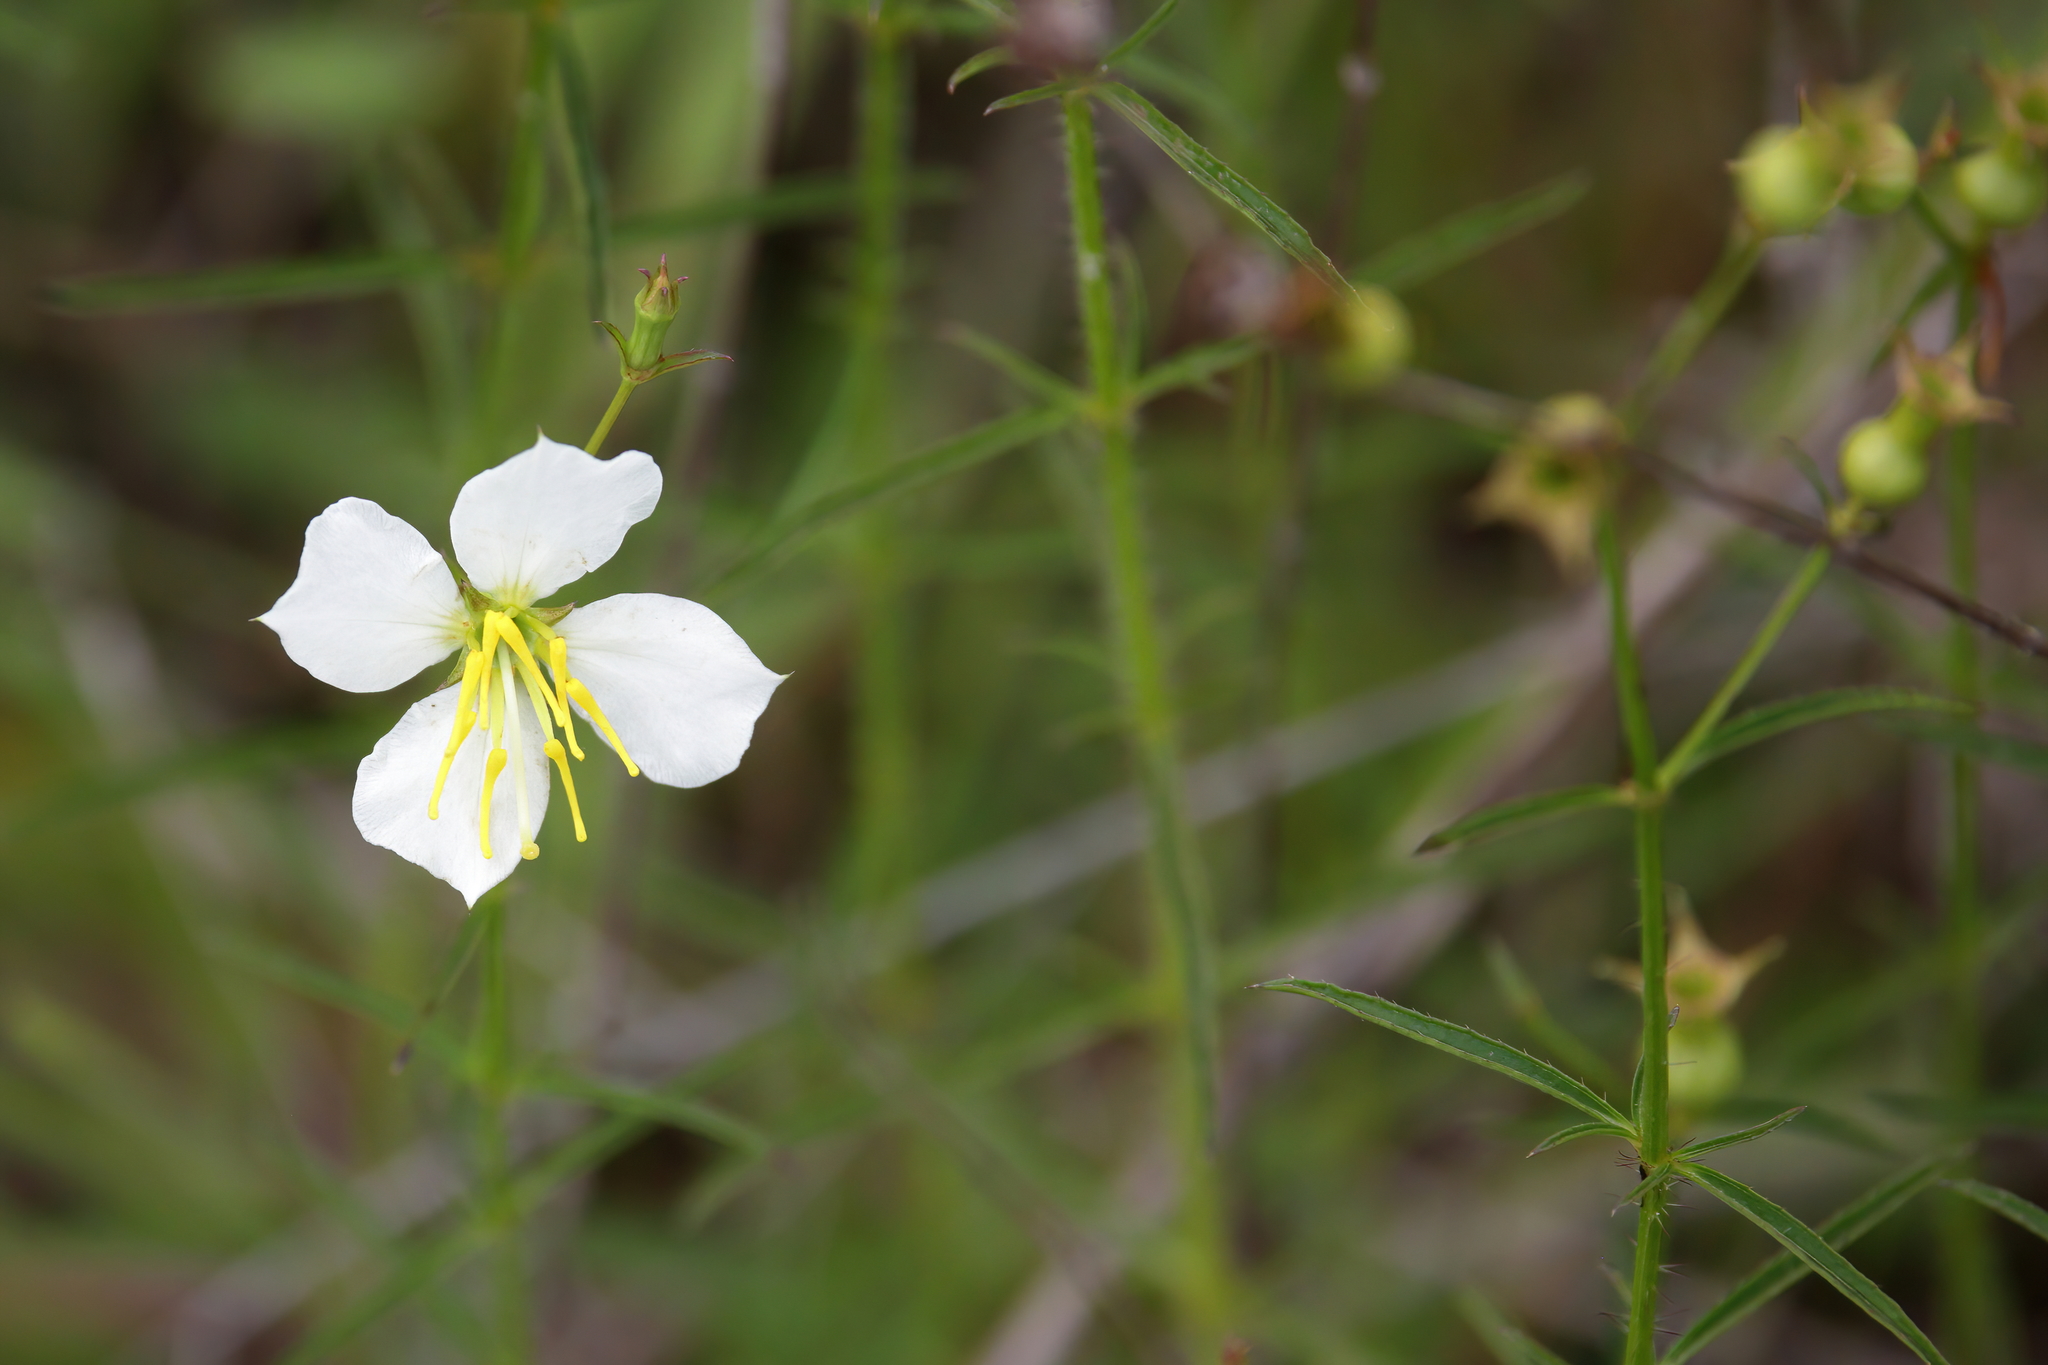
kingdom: Plantae
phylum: Tracheophyta
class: Magnoliopsida
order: Myrtales
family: Melastomataceae
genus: Rhexia
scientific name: Rhexia mariana
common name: Dull meadow-pitcher
